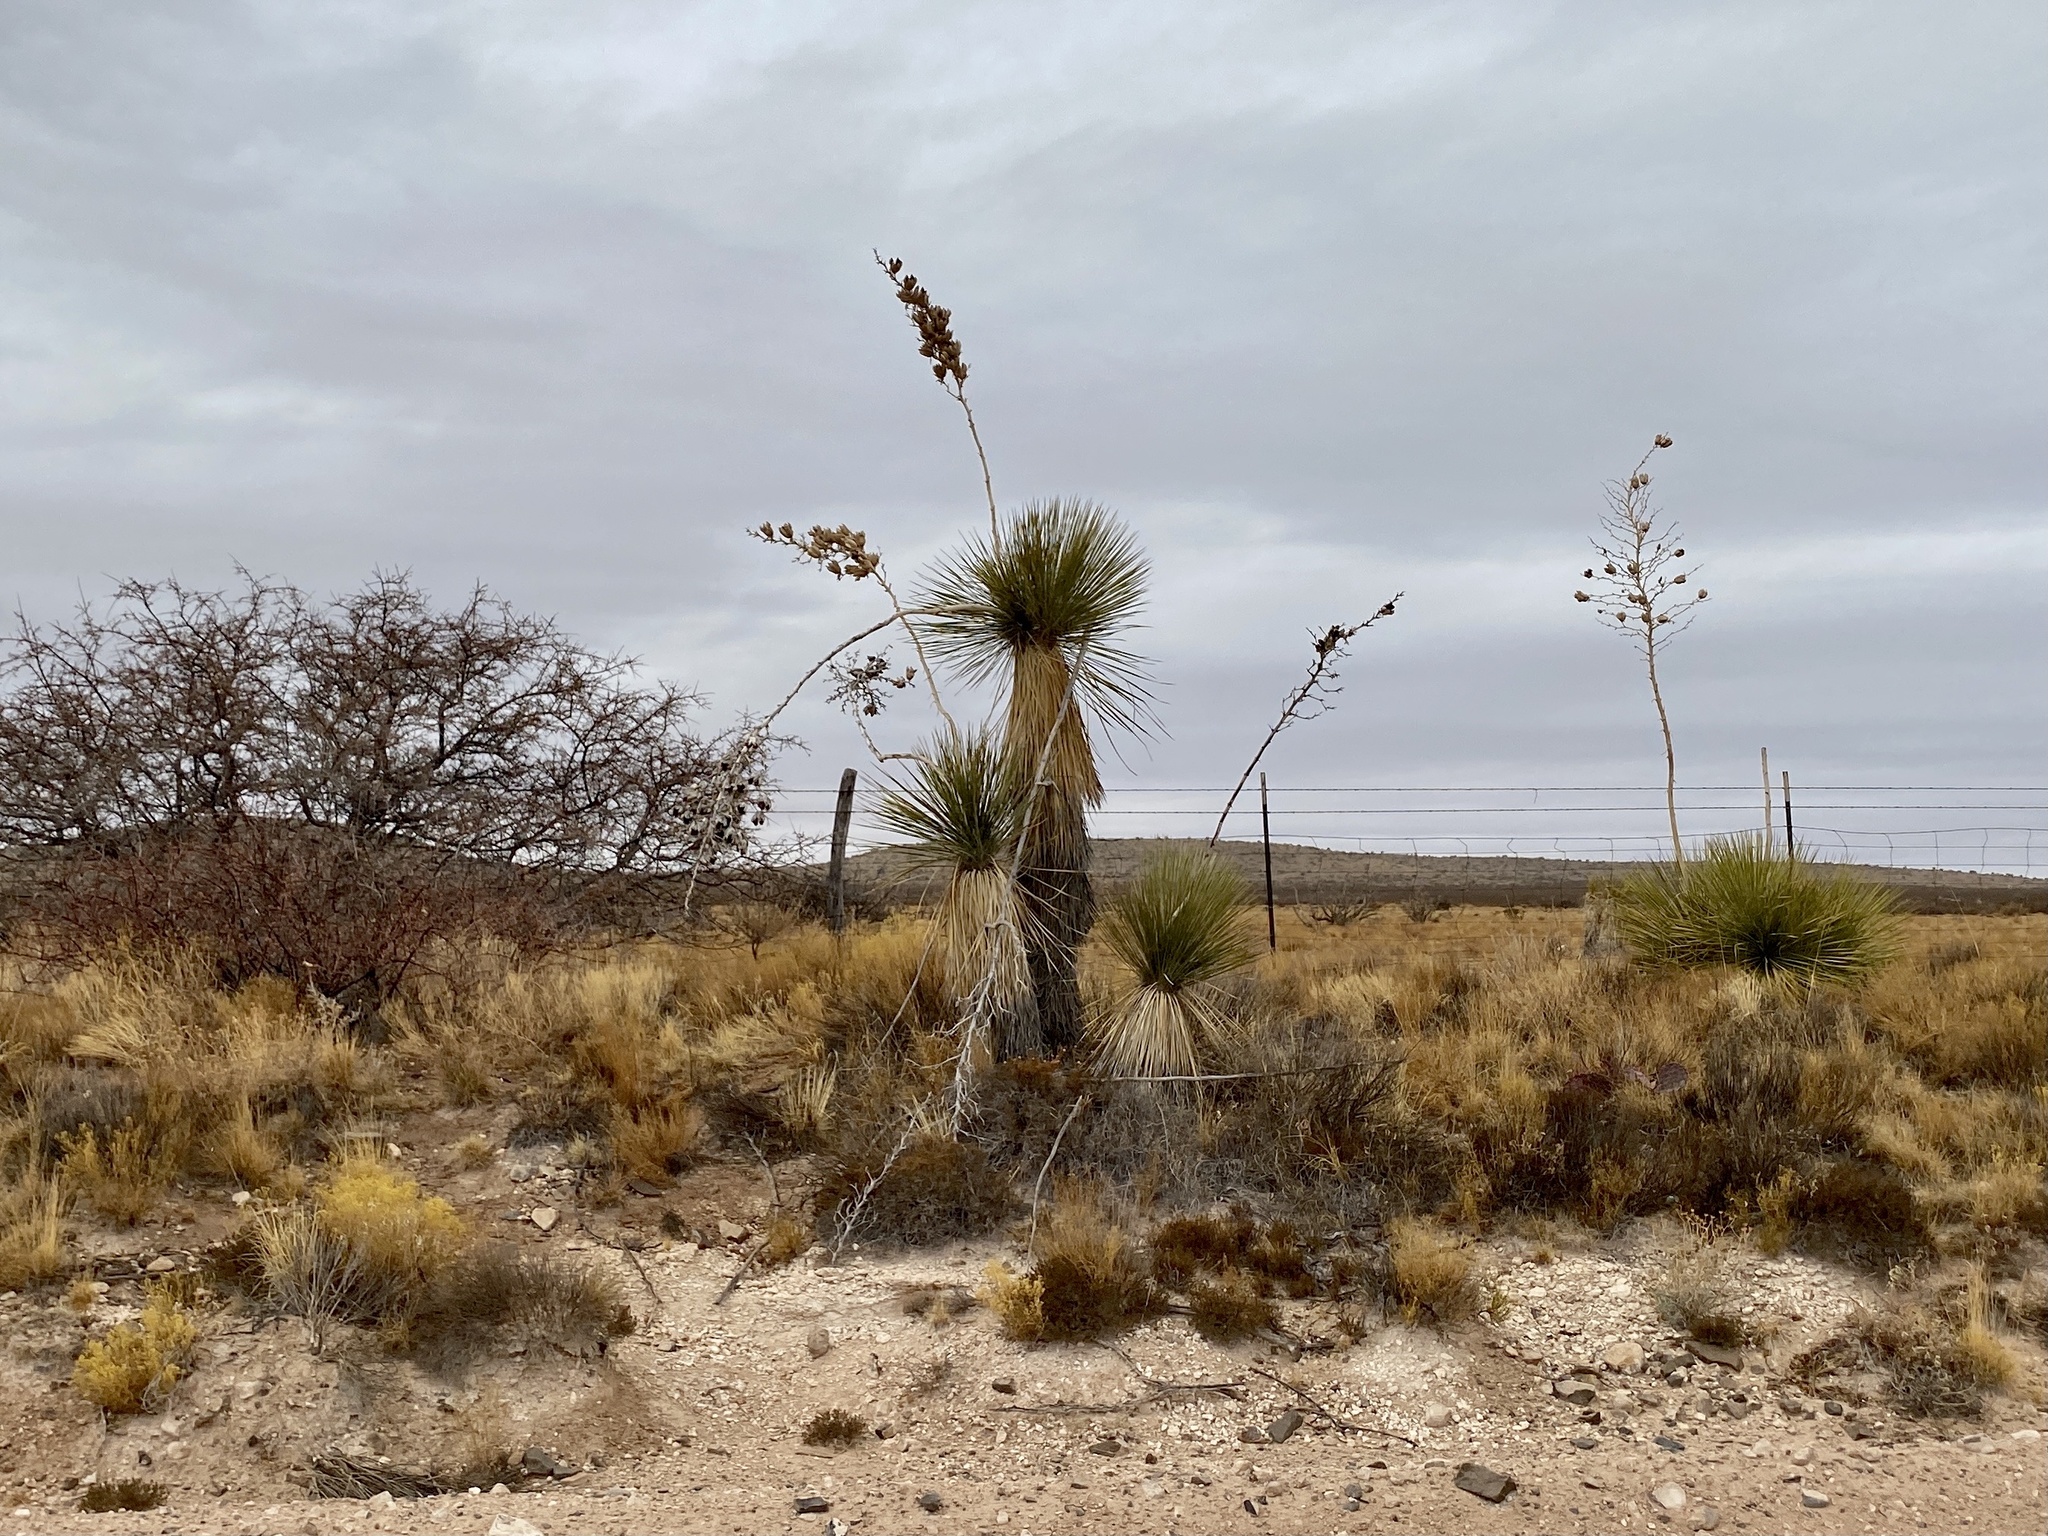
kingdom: Plantae
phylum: Tracheophyta
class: Liliopsida
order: Asparagales
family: Asparagaceae
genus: Yucca
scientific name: Yucca elata
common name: Palmella
